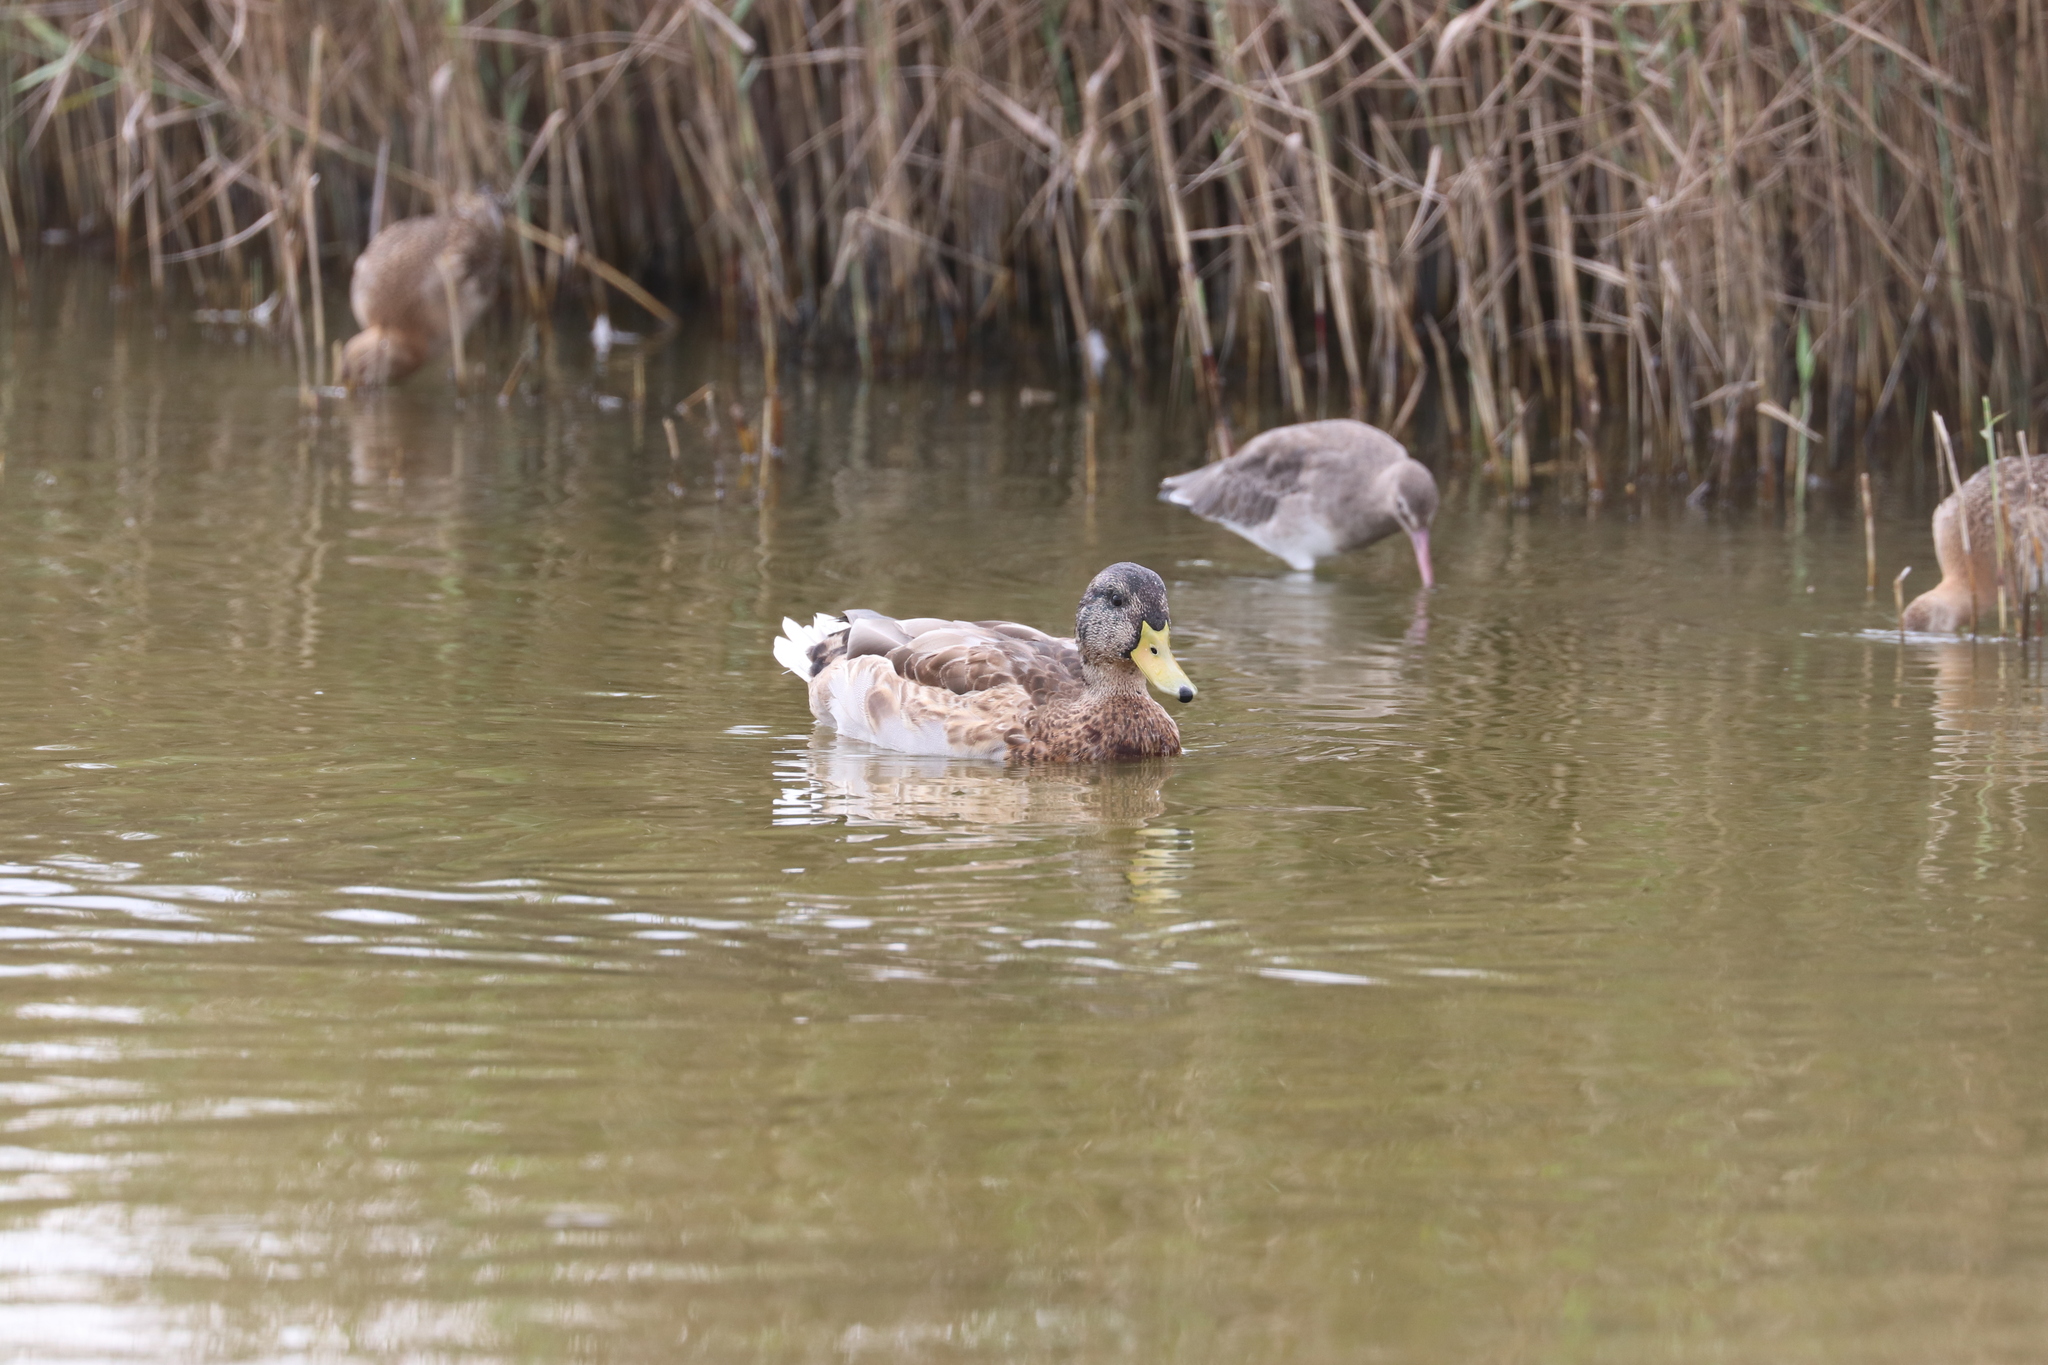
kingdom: Animalia
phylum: Chordata
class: Aves
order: Anseriformes
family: Anatidae
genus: Anas
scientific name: Anas platyrhynchos
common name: Mallard
